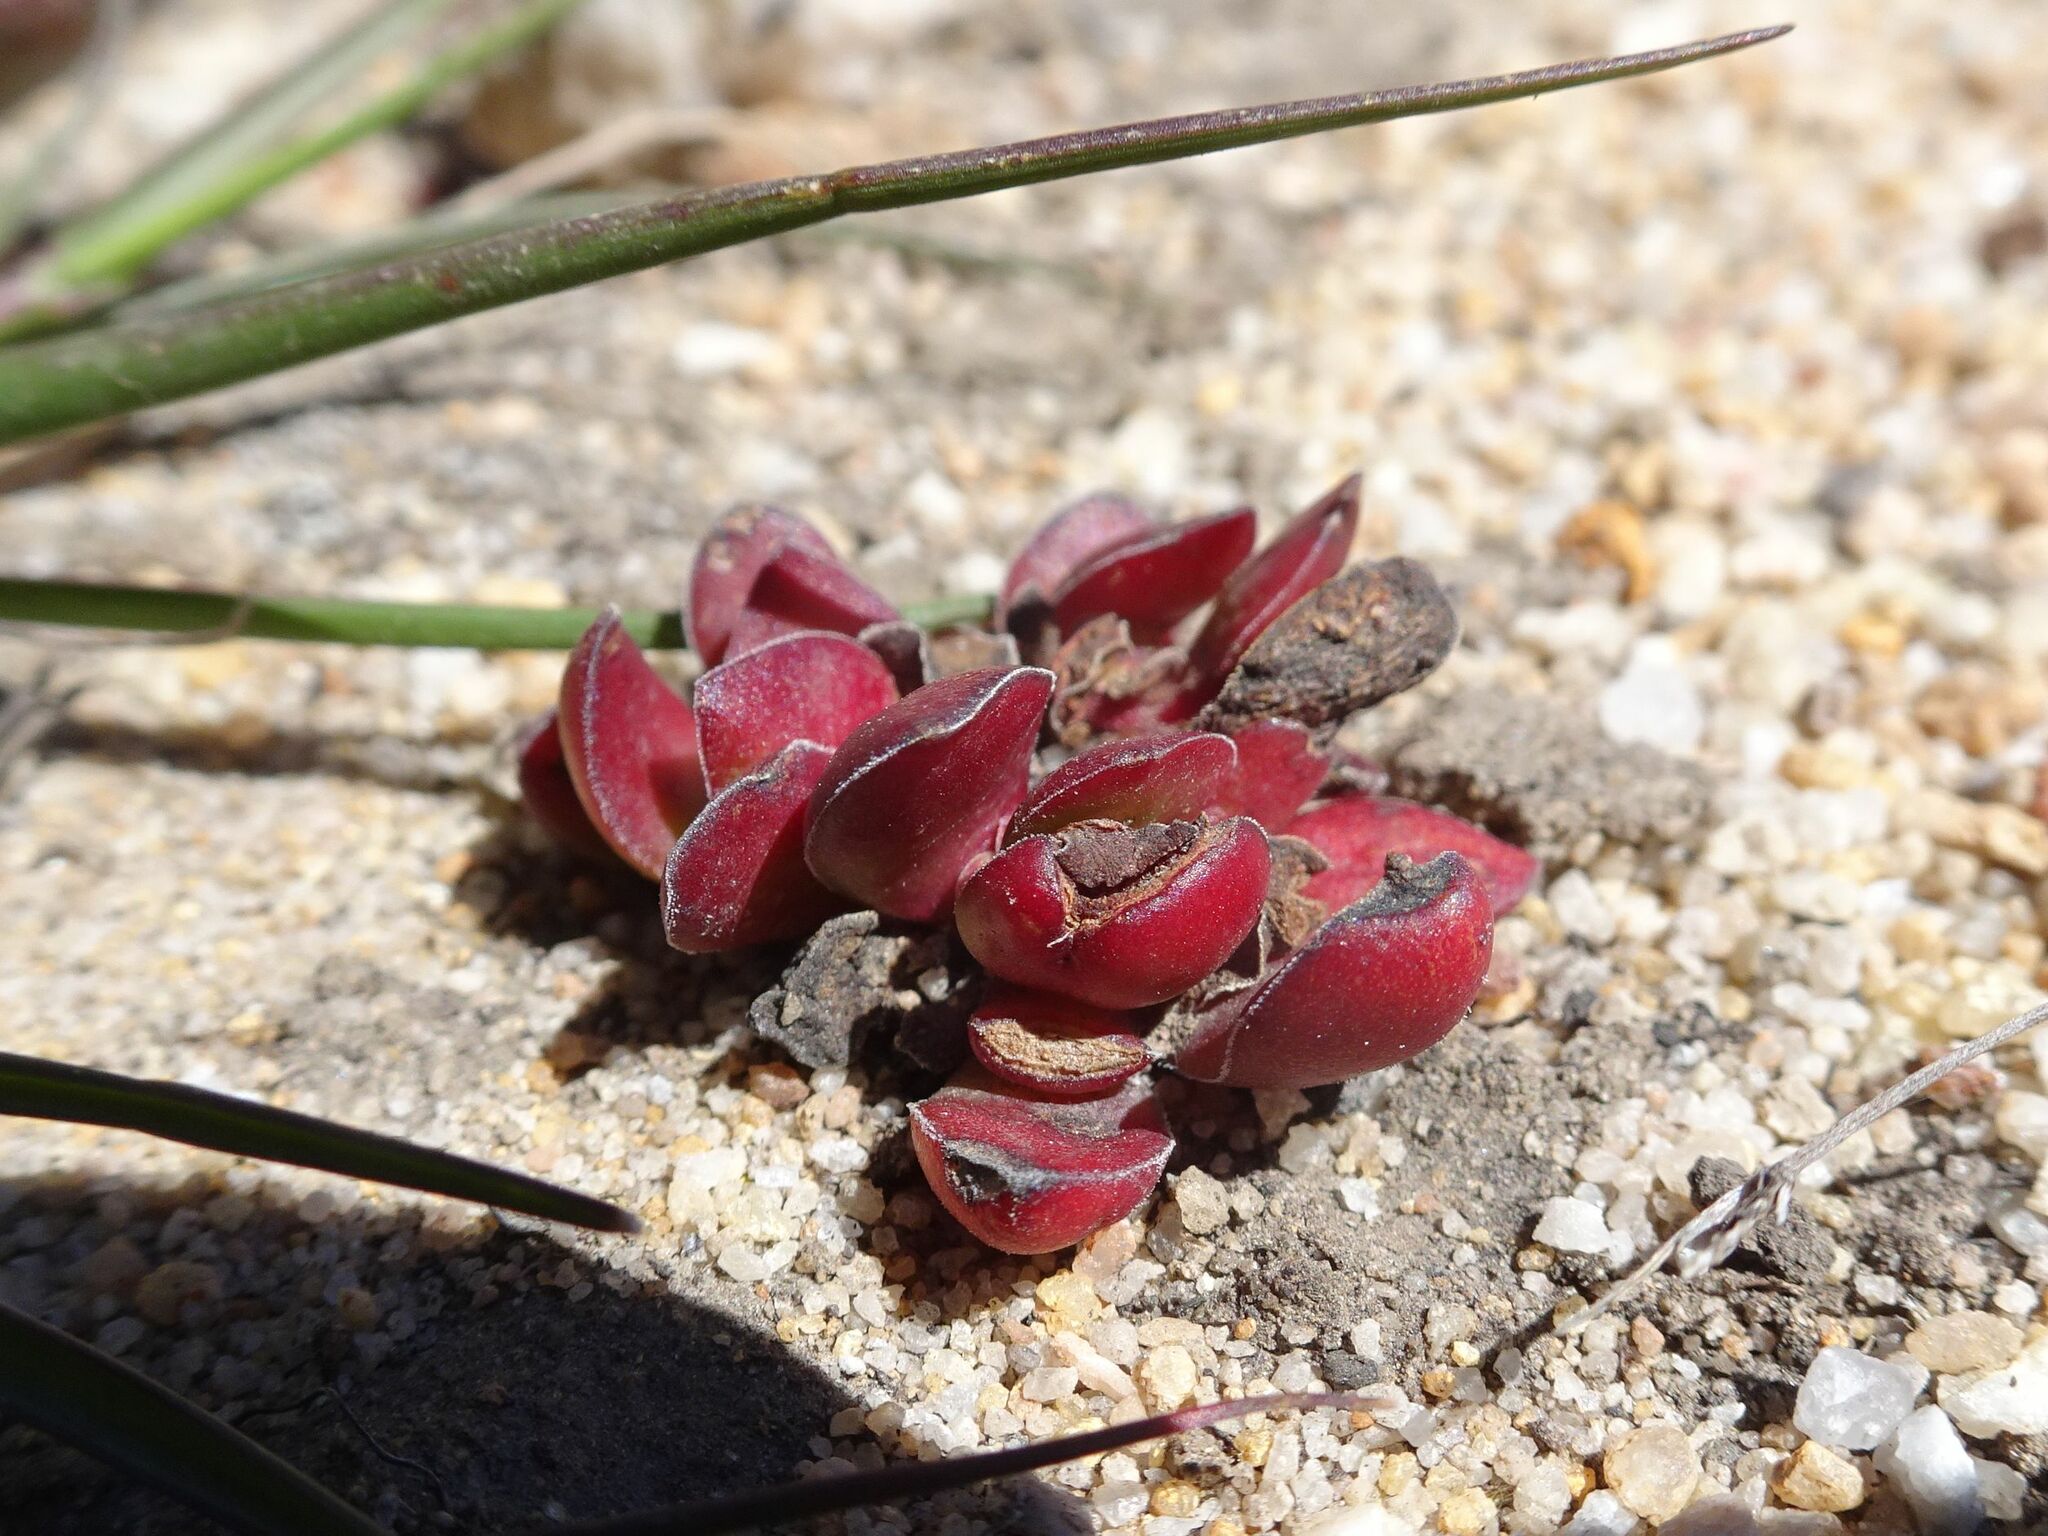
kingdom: Plantae
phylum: Tracheophyta
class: Magnoliopsida
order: Saxifragales
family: Crassulaceae
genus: Crassula
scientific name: Crassula nudicaulis
